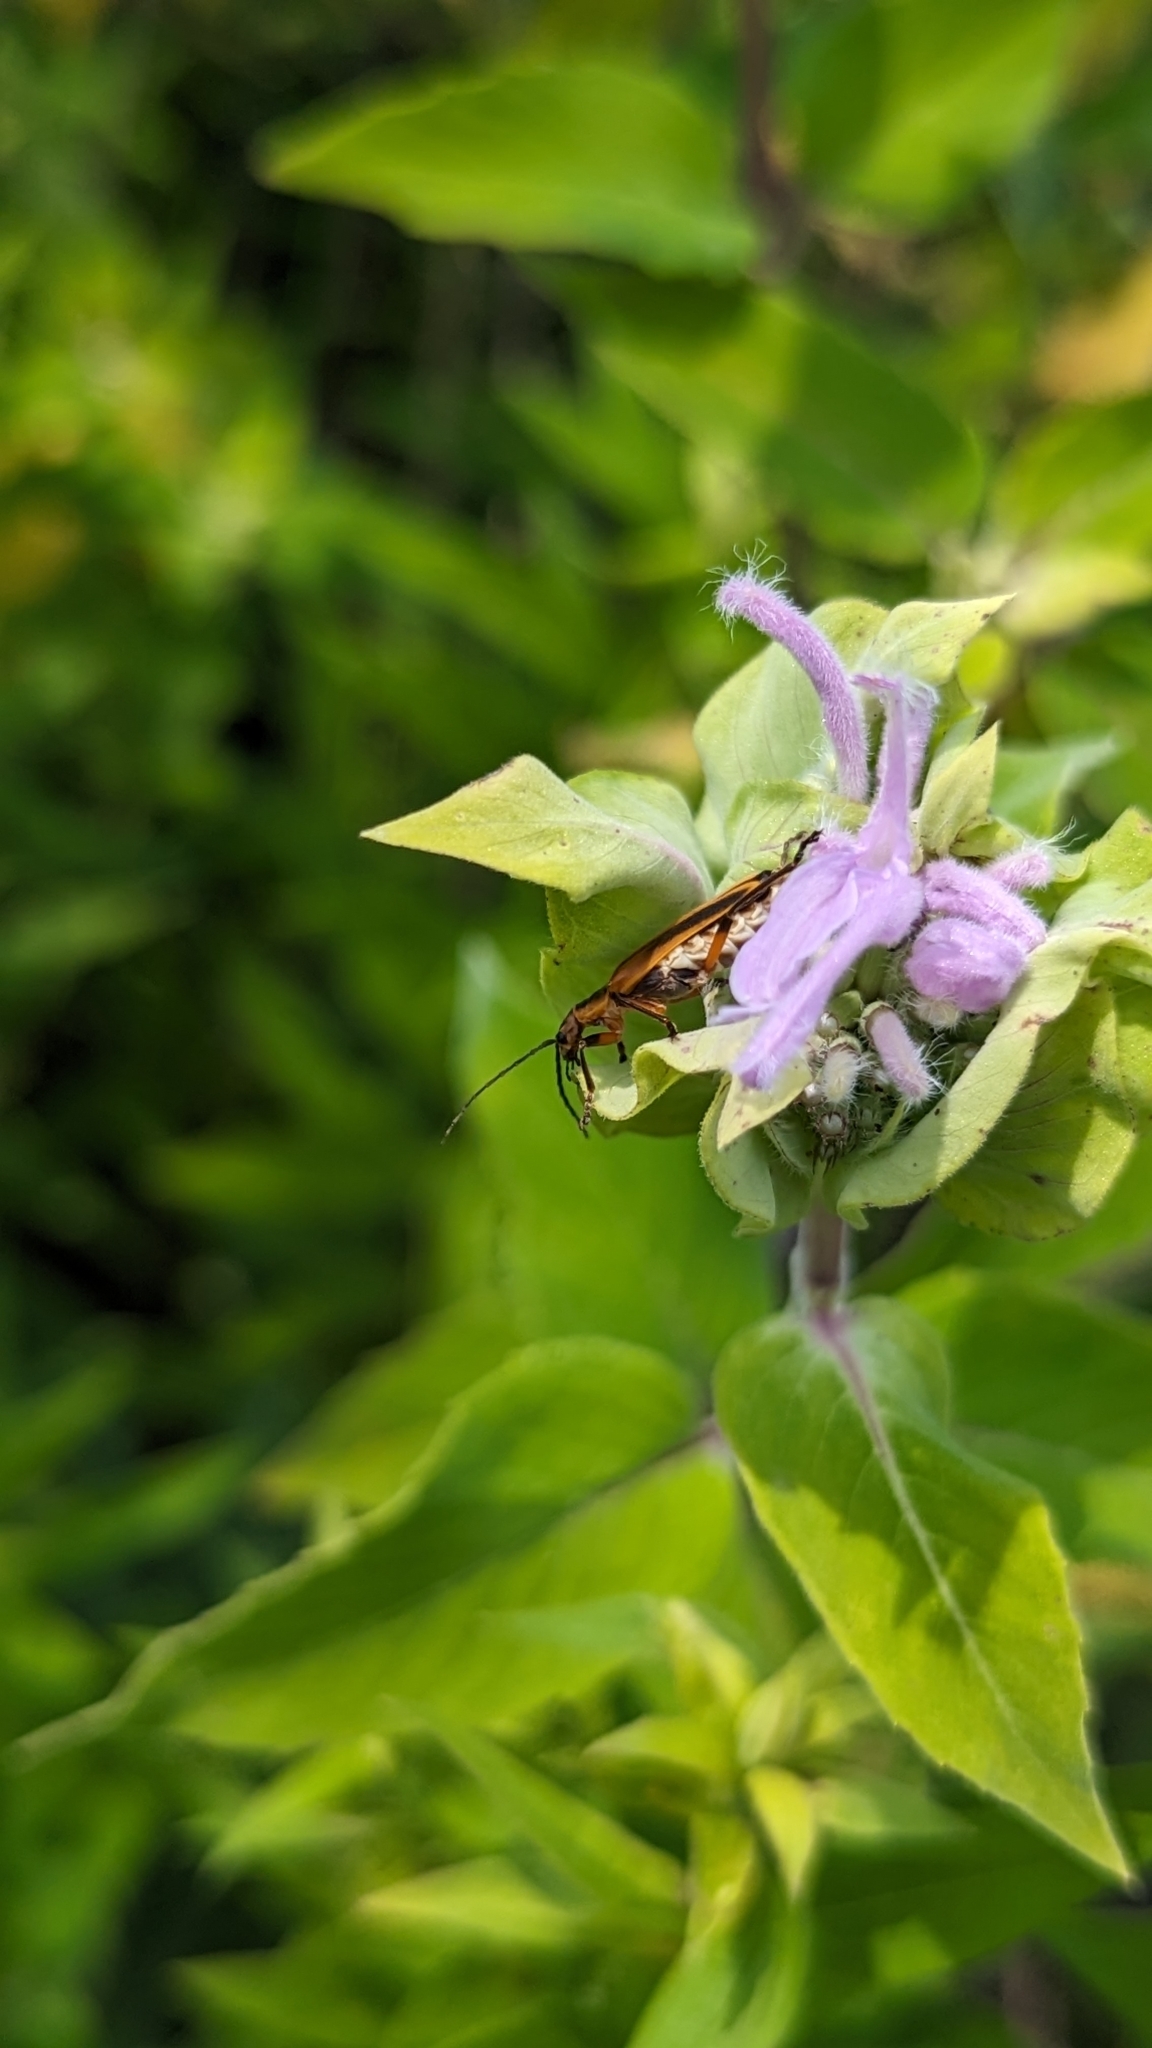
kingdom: Animalia
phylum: Arthropoda
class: Insecta
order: Coleoptera
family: Cantharidae
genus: Chauliognathus
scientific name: Chauliognathus marginatus
